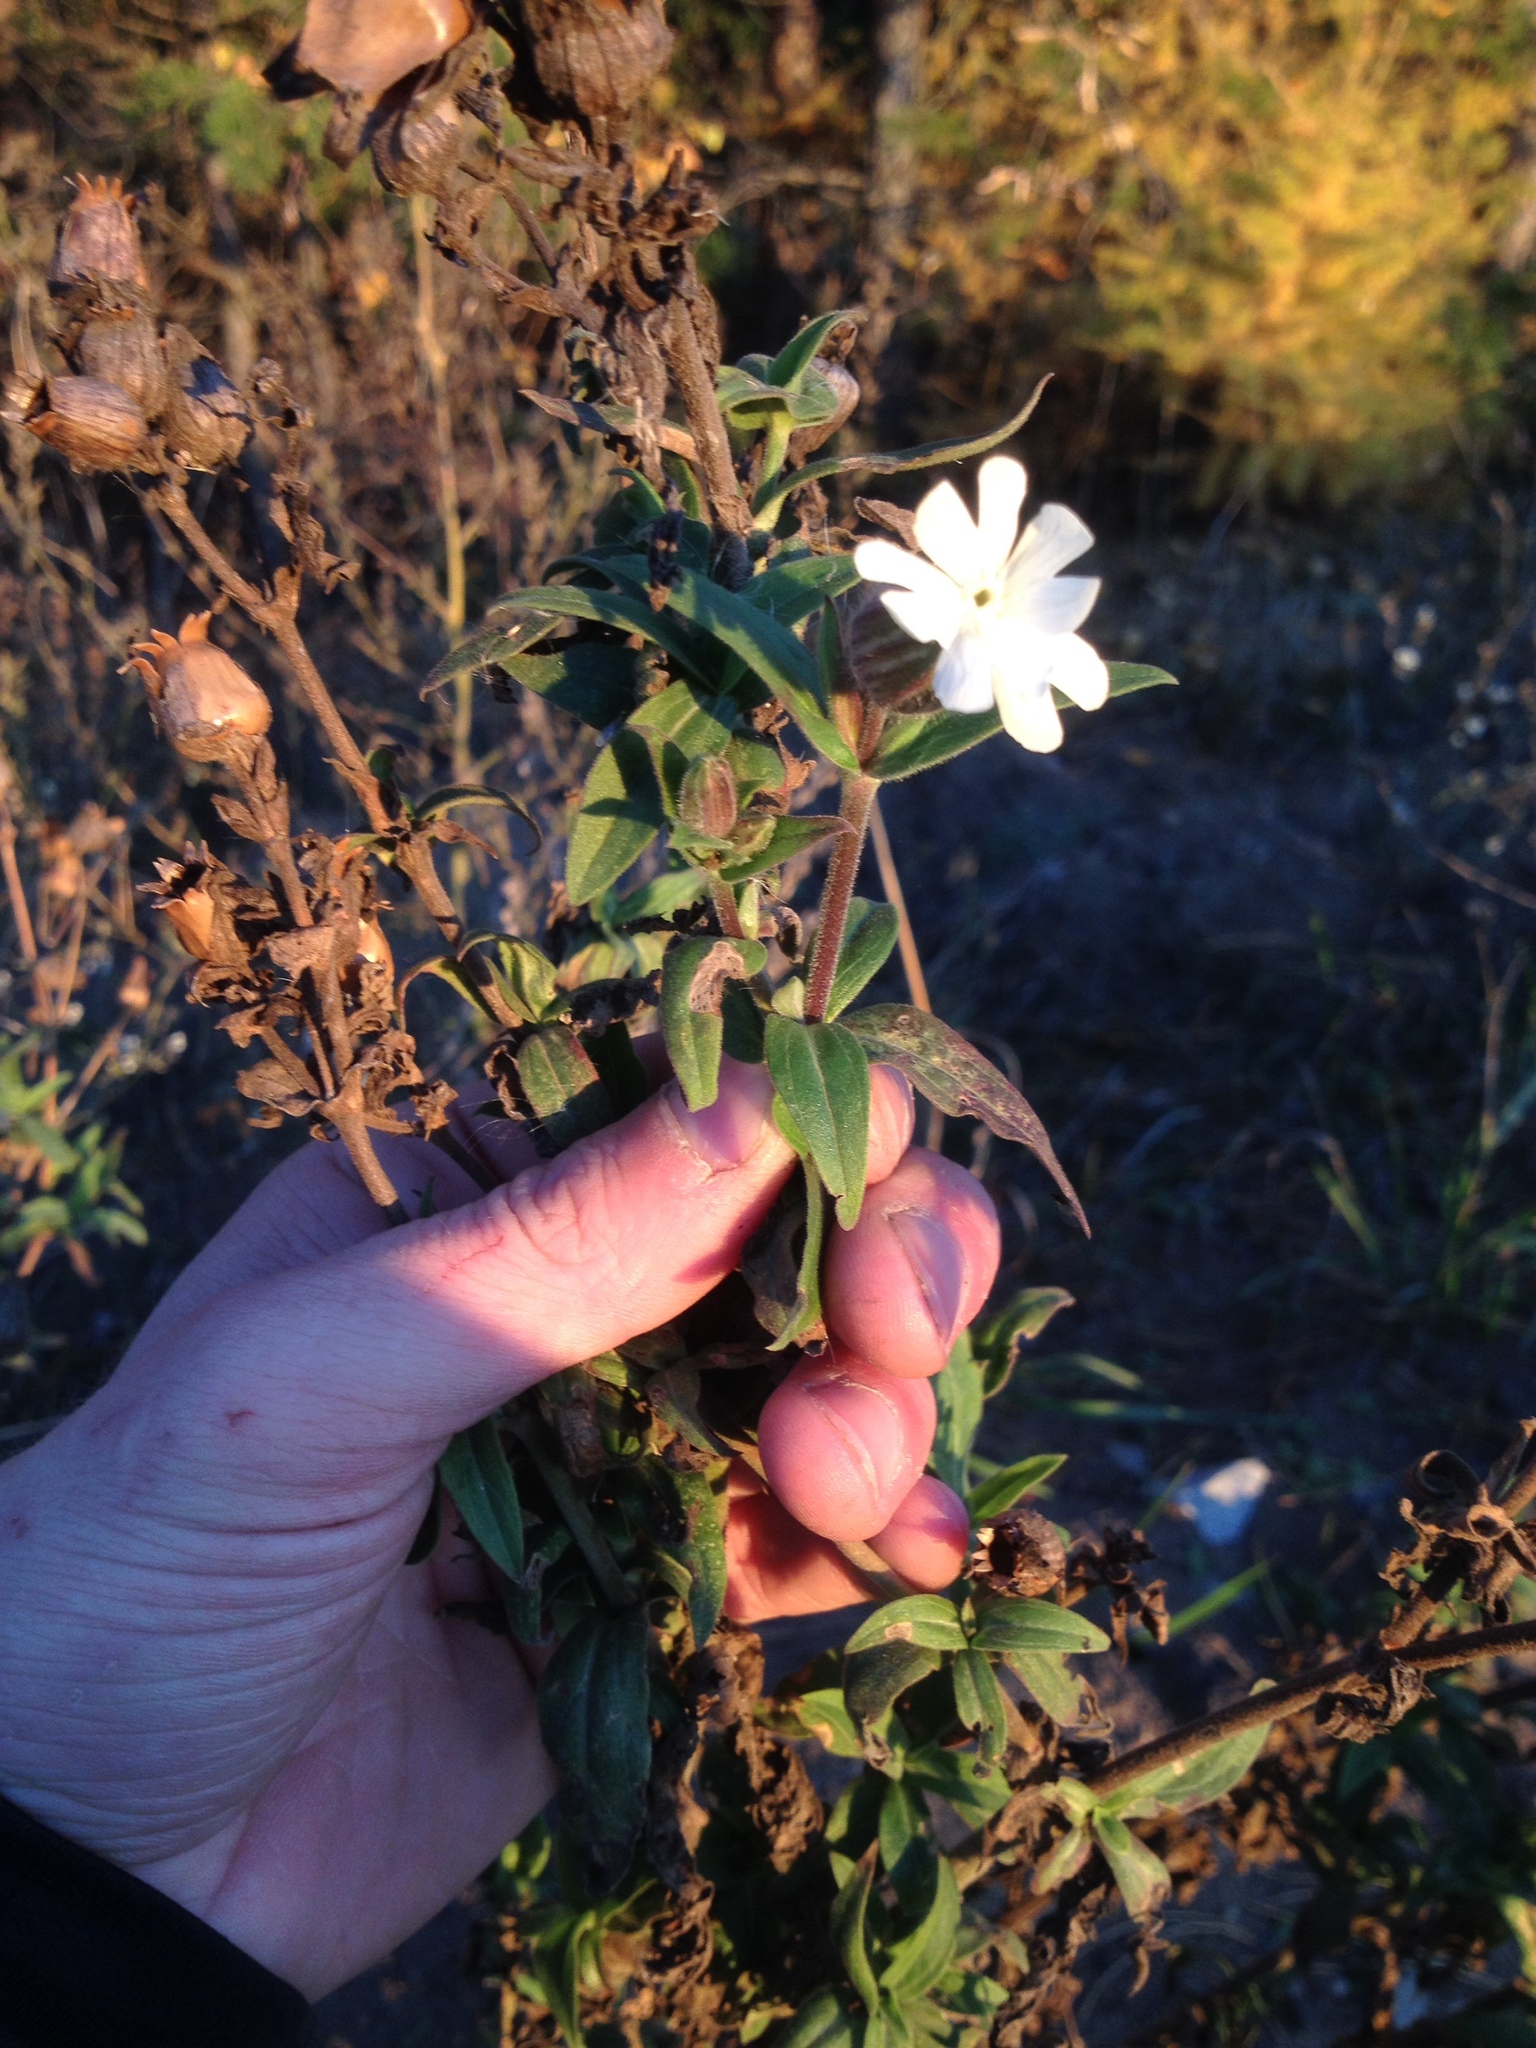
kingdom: Plantae
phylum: Tracheophyta
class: Magnoliopsida
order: Caryophyllales
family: Caryophyllaceae
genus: Silene
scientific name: Silene latifolia
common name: White campion
